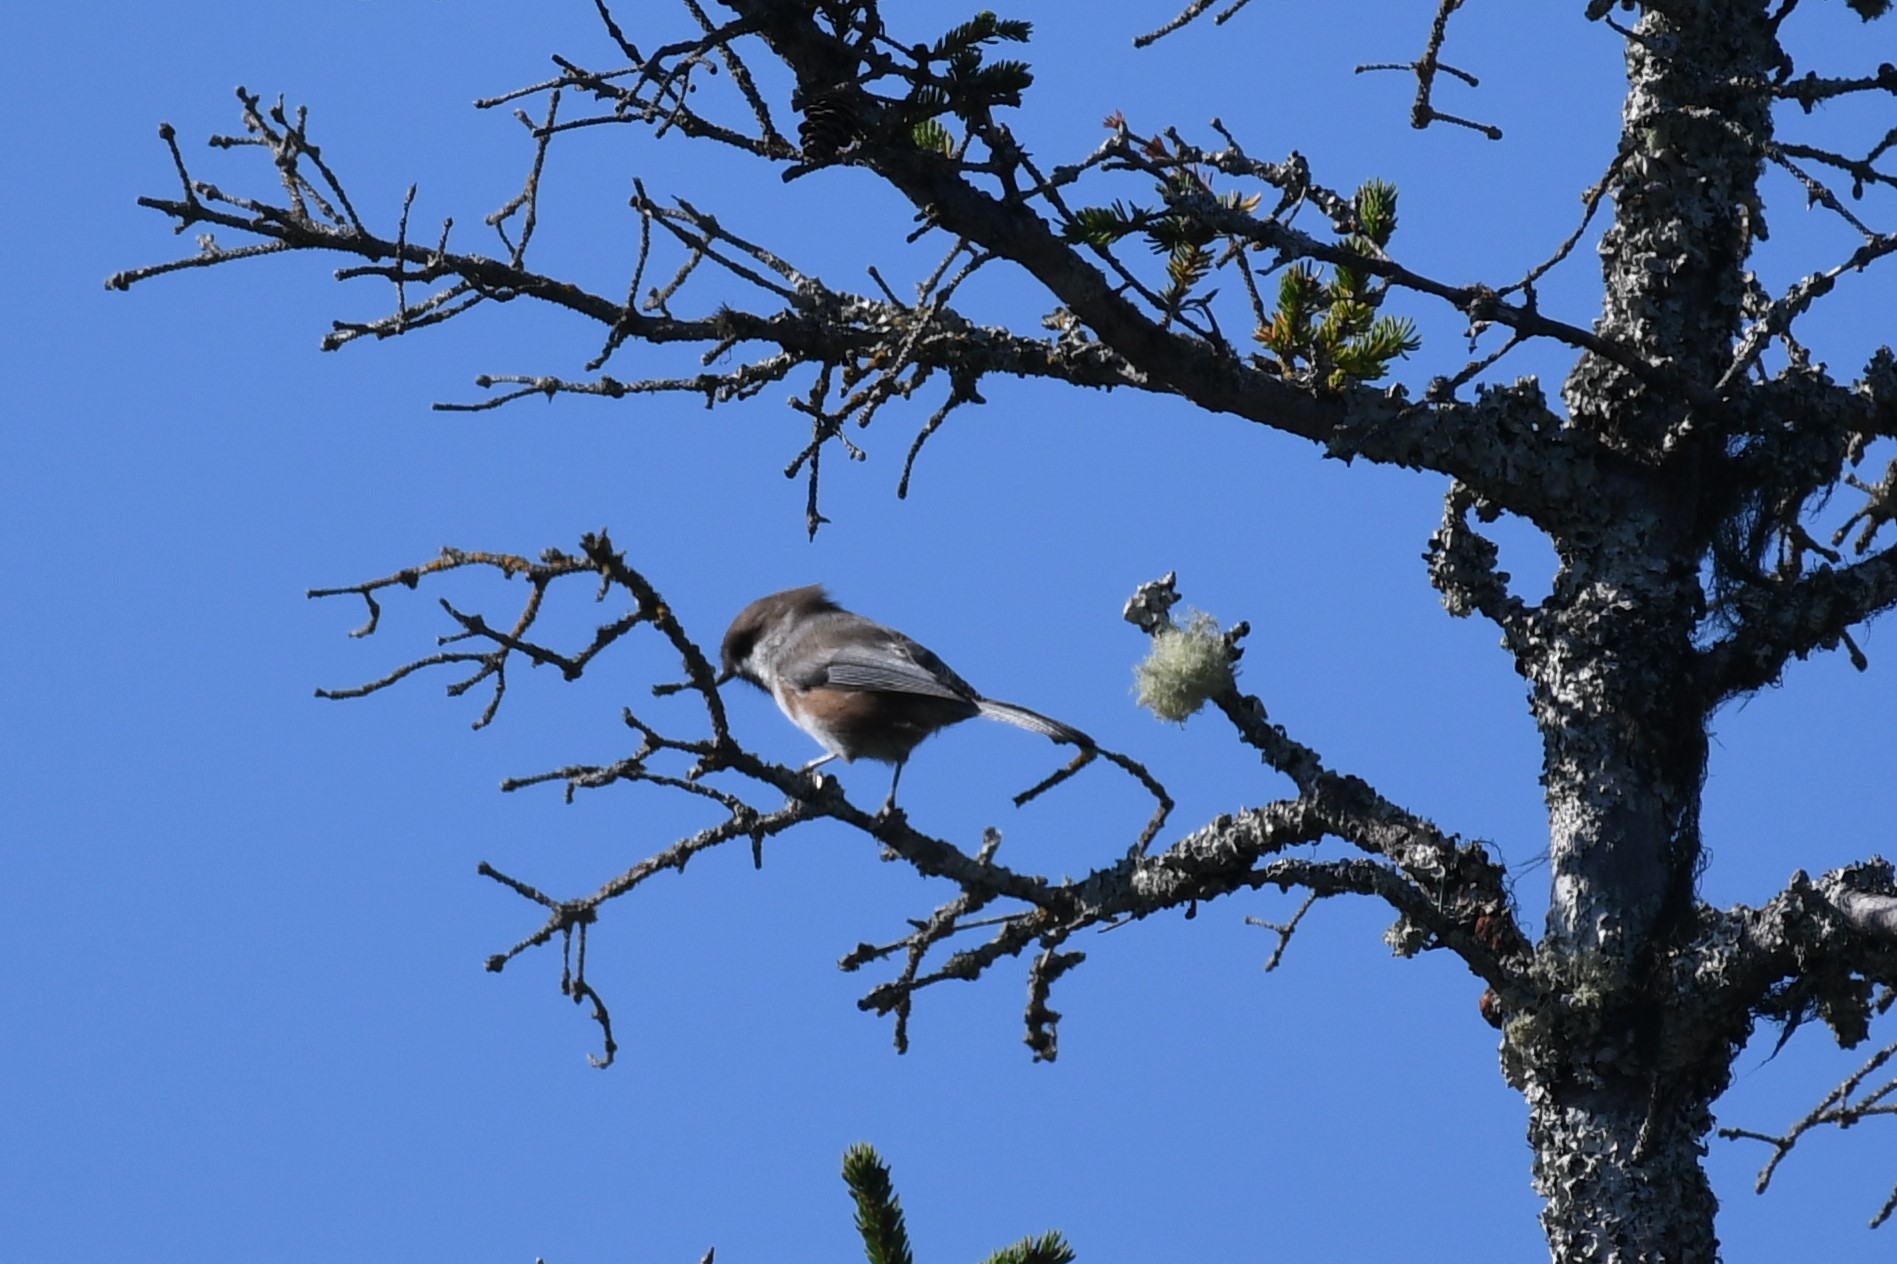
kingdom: Animalia
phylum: Chordata
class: Aves
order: Passeriformes
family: Paridae
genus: Poecile
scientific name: Poecile hudsonicus
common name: Boreal chickadee
